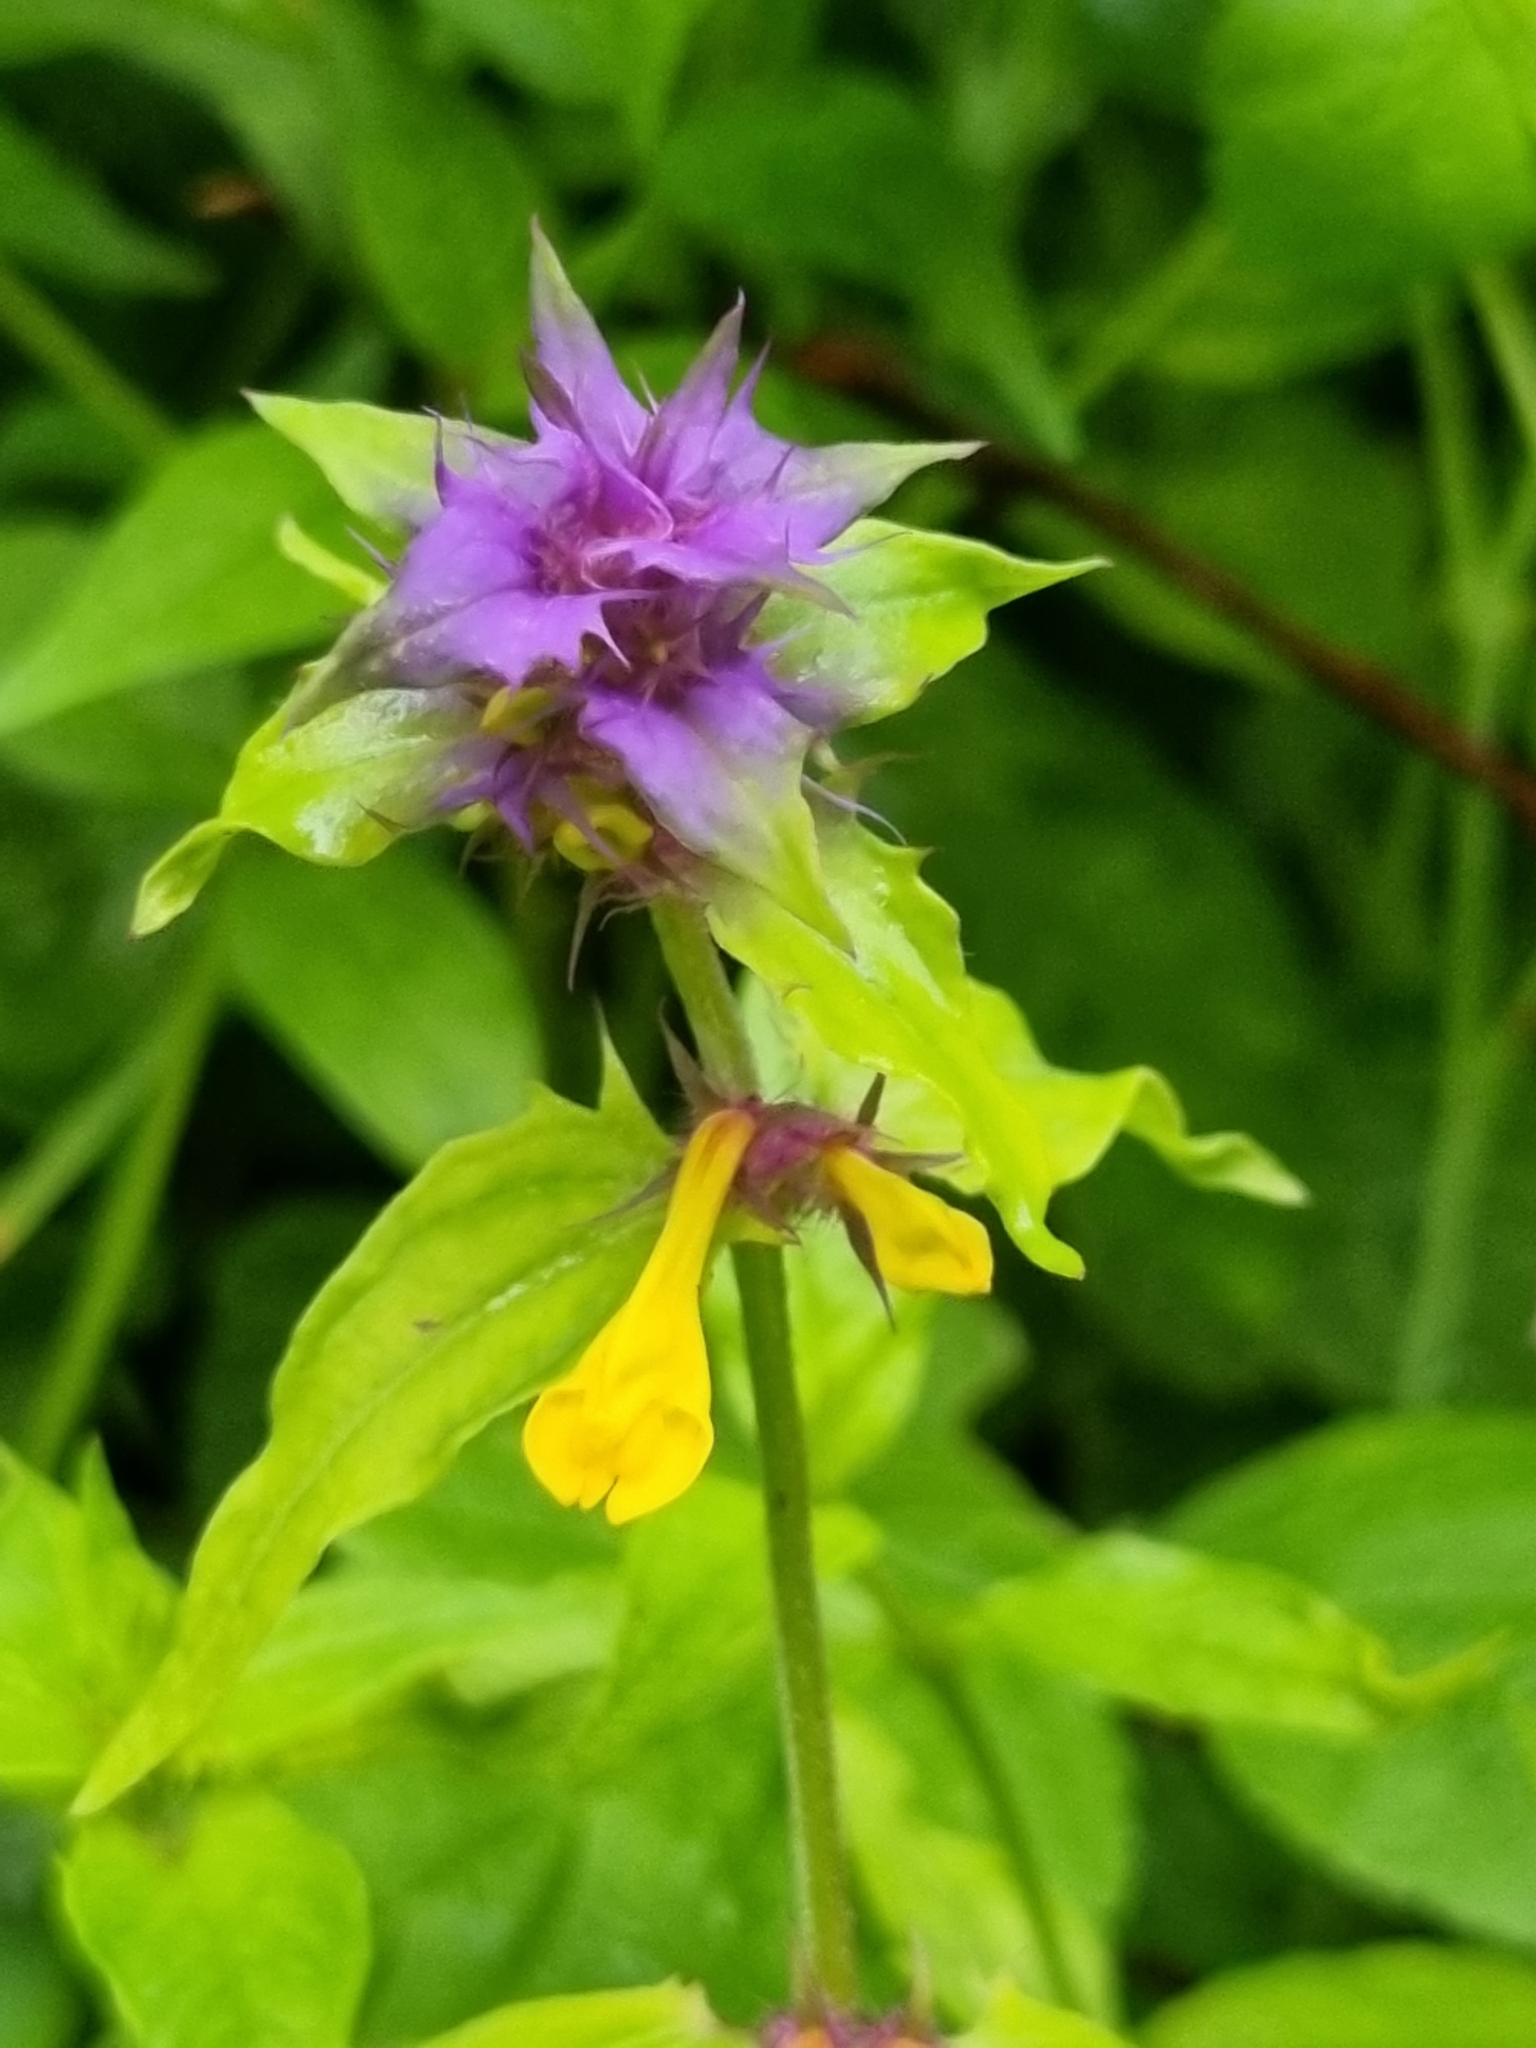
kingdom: Plantae
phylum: Tracheophyta
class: Magnoliopsida
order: Lamiales
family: Orobanchaceae
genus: Melampyrum
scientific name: Melampyrum nemorosum
